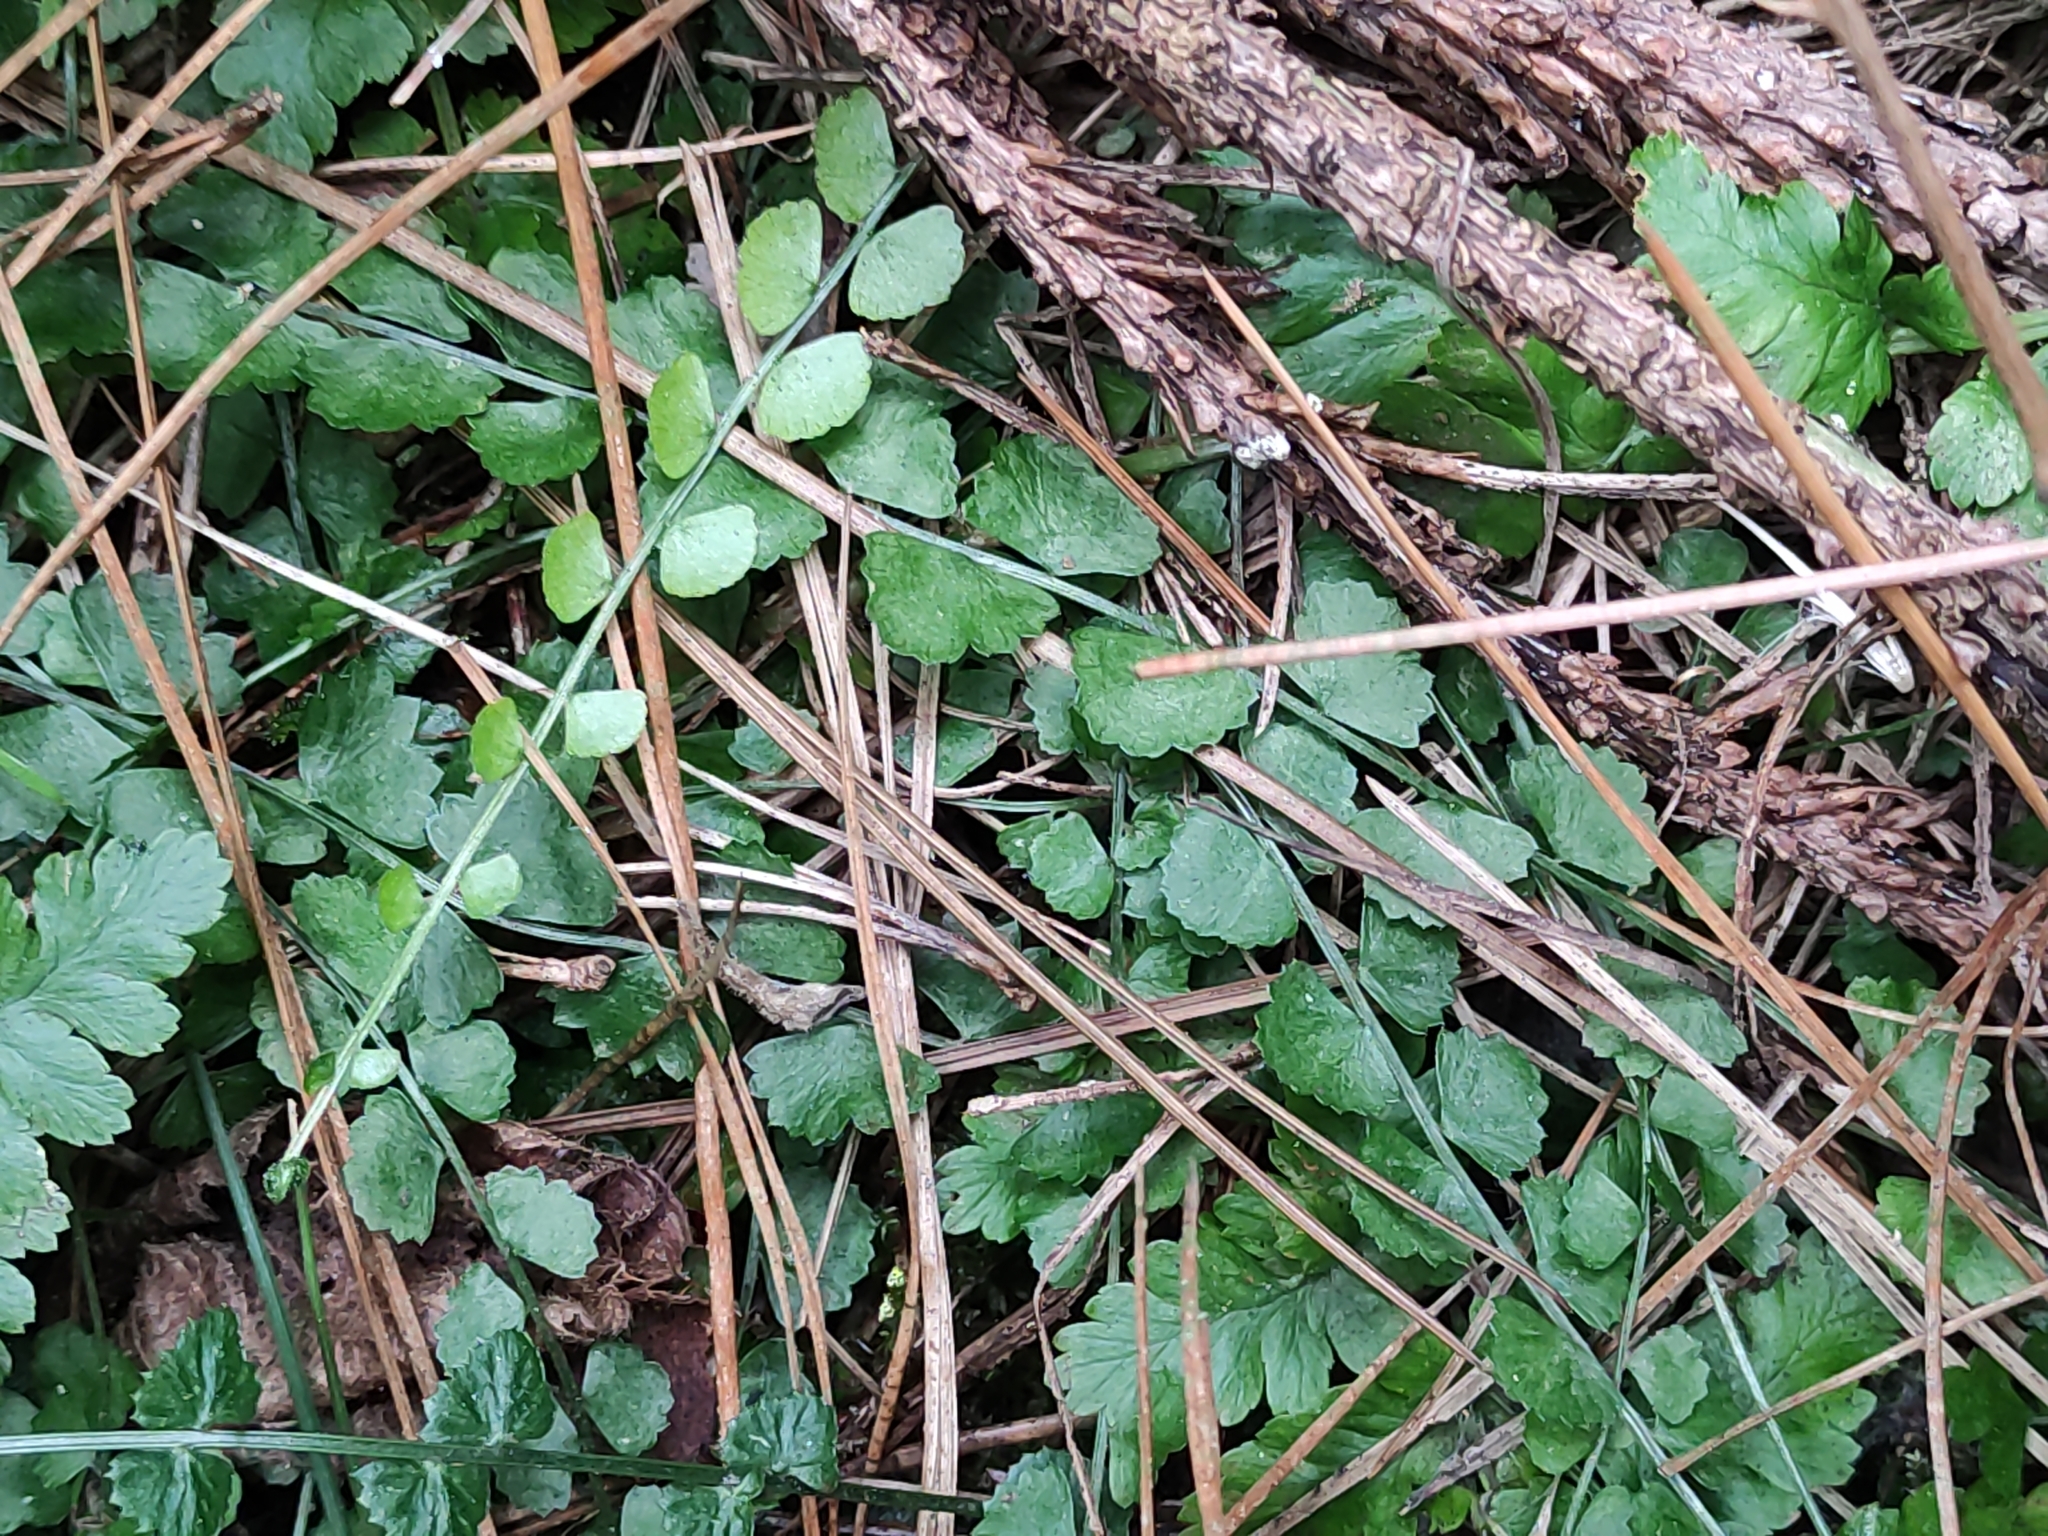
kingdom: Plantae
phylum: Tracheophyta
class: Polypodiopsida
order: Polypodiales
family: Aspleniaceae
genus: Asplenium
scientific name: Asplenium flabellifolium
